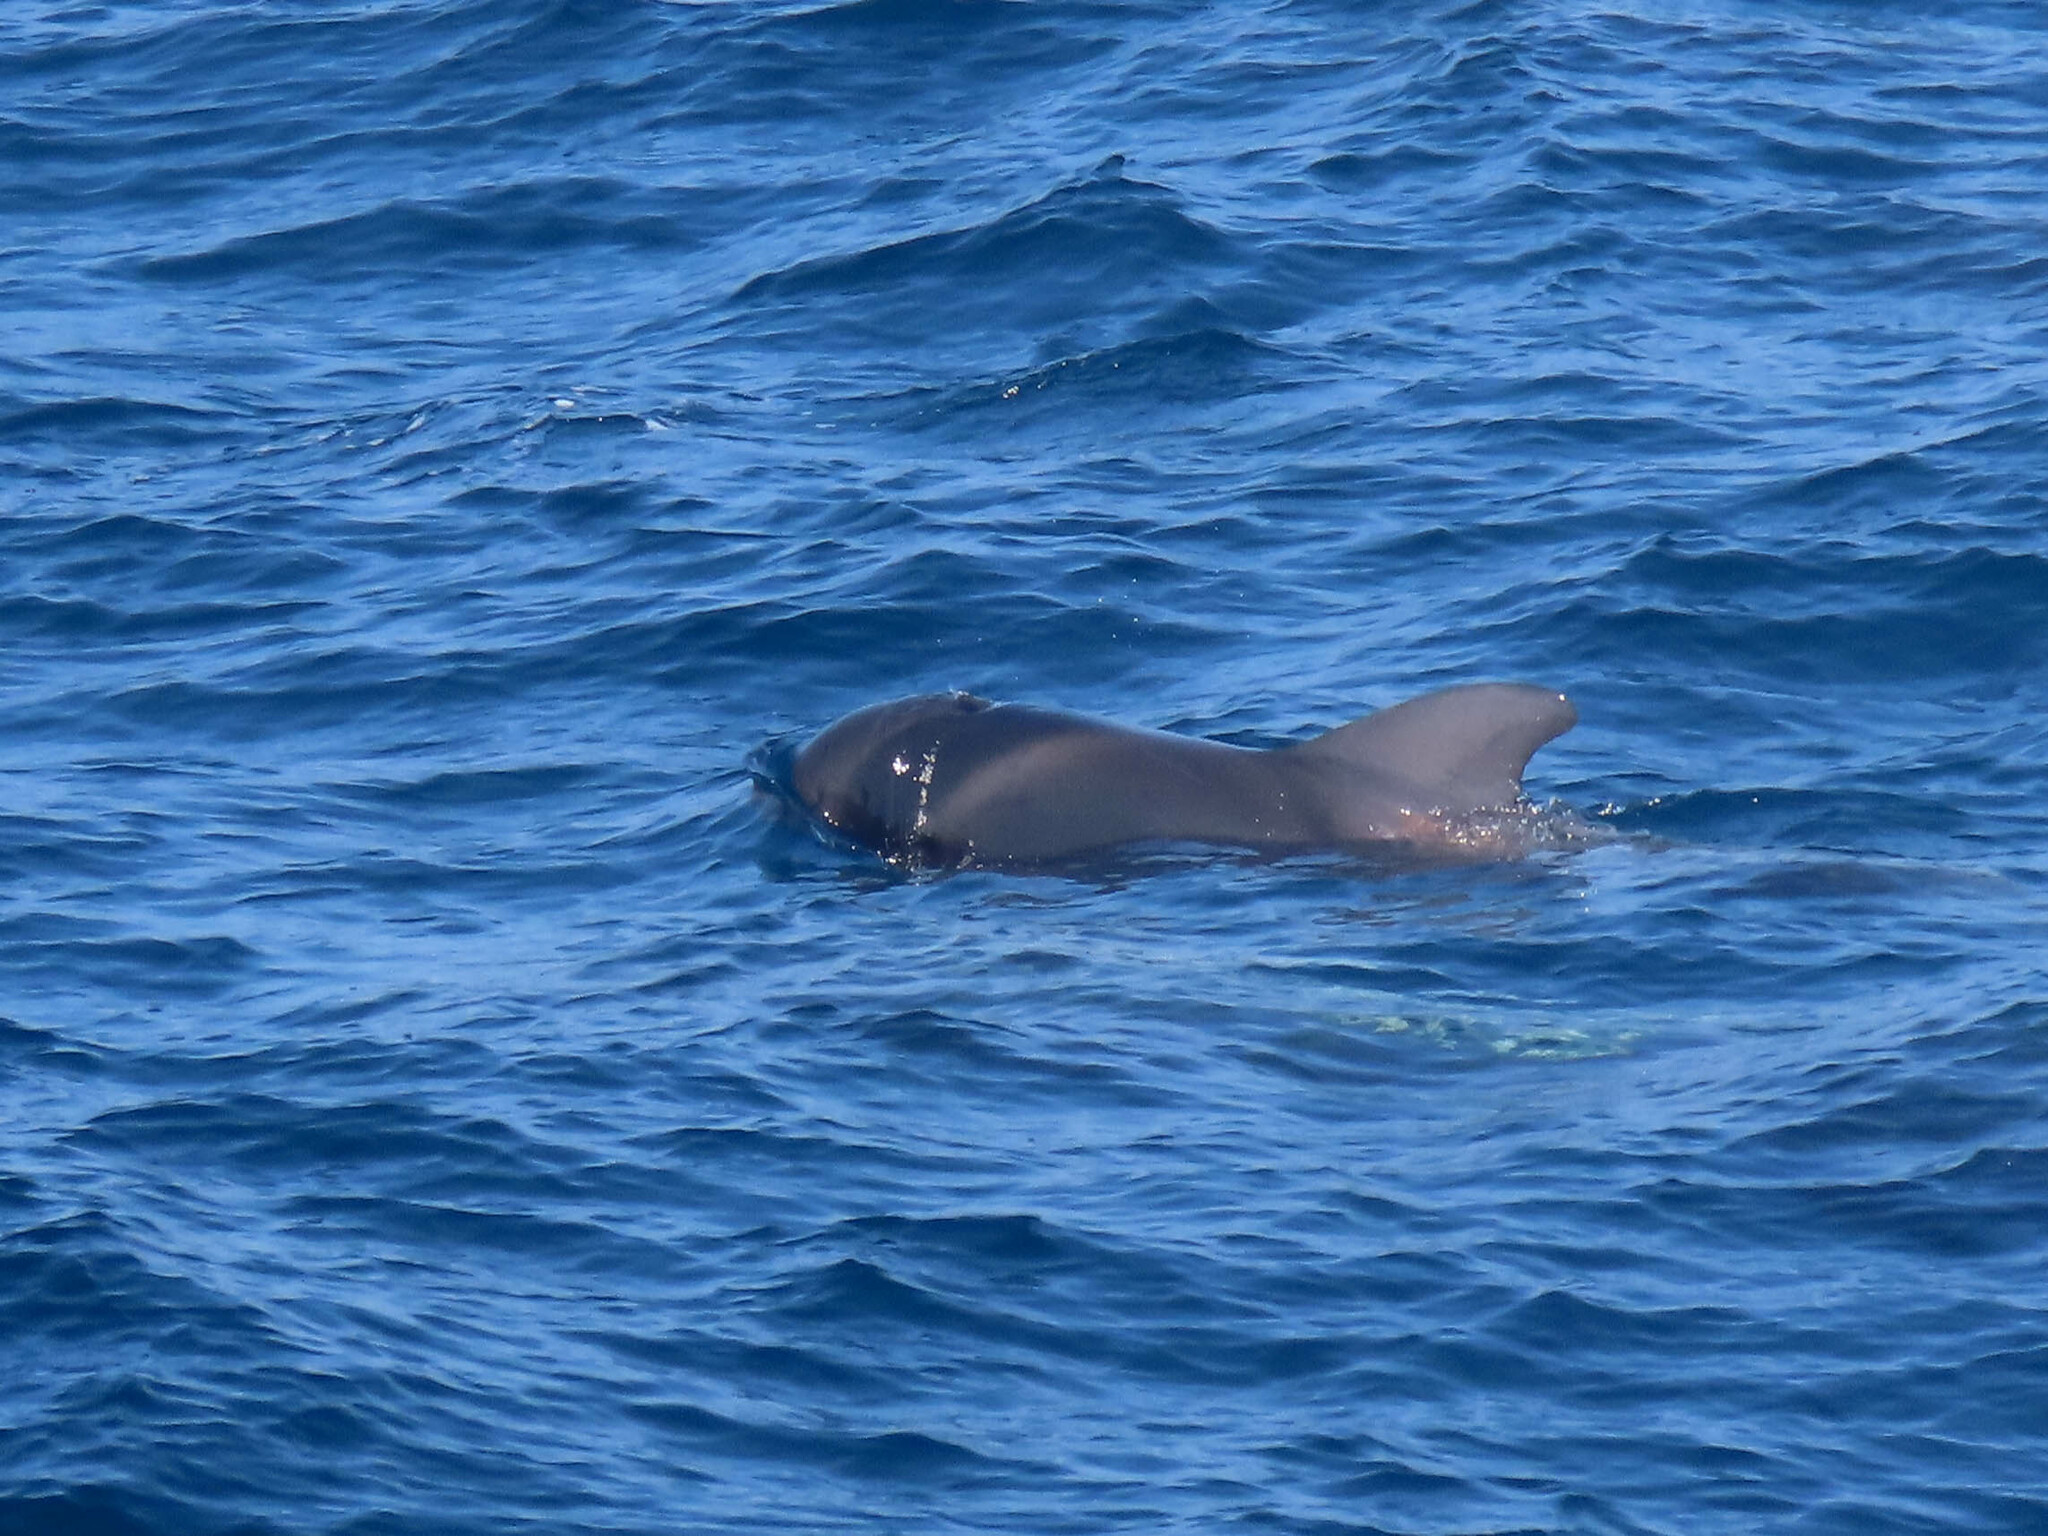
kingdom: Animalia
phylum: Chordata
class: Mammalia
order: Cetacea
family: Delphinidae
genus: Globicephala
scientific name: Globicephala macrorhynchus
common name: Short-finned pilot whale
